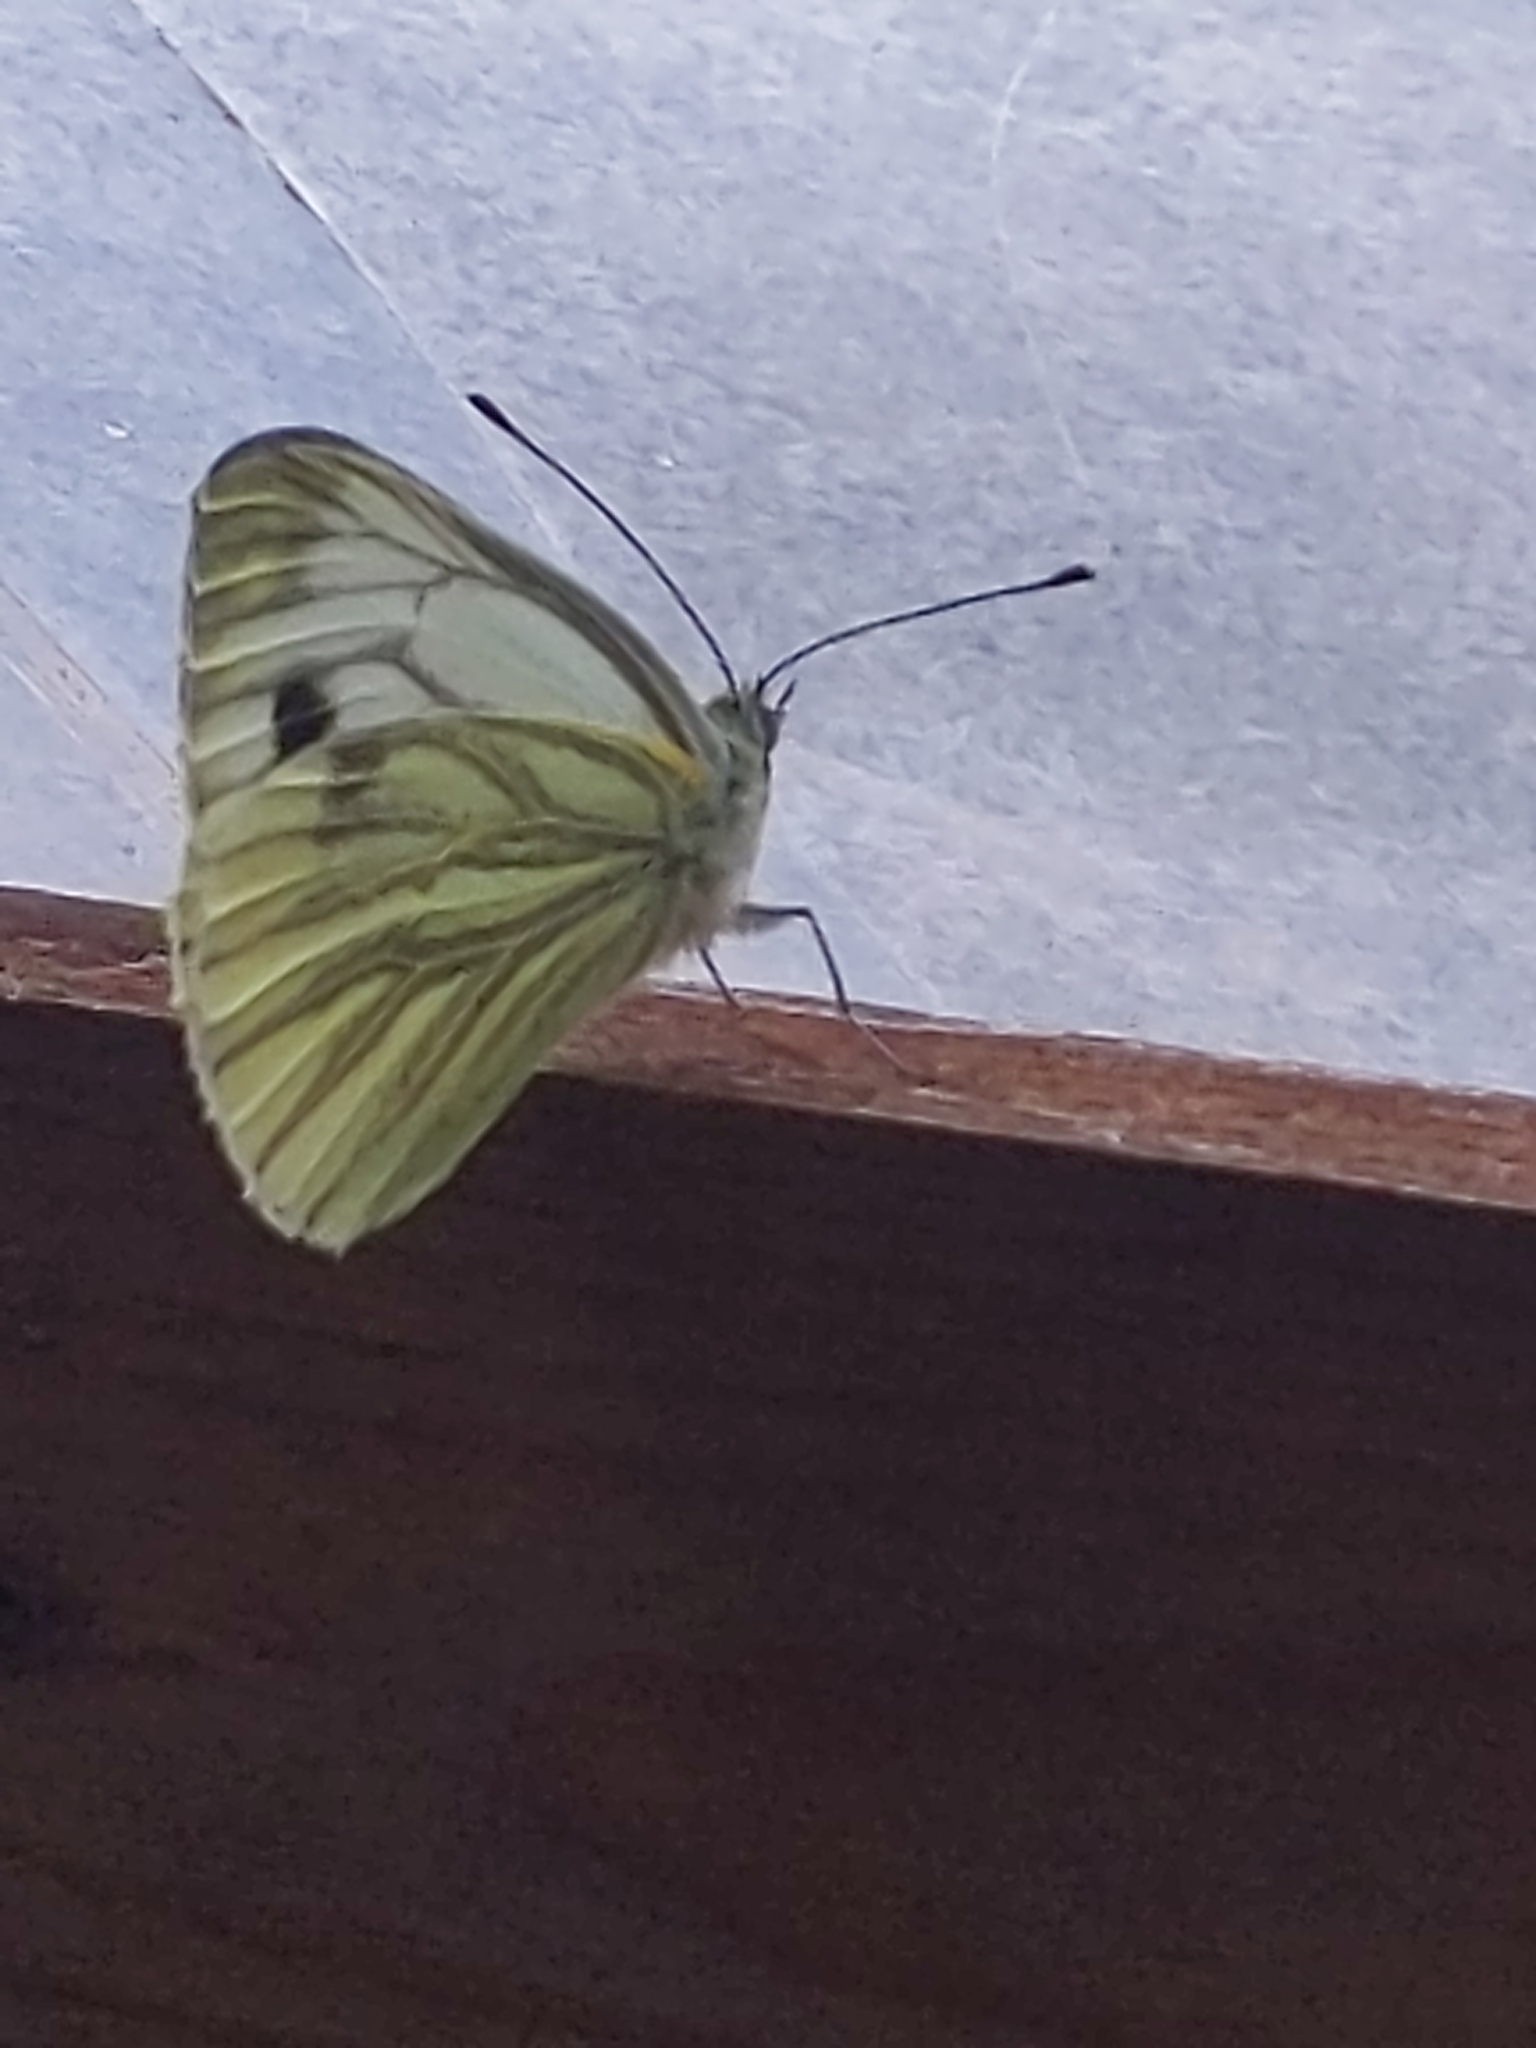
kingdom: Animalia
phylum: Arthropoda
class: Insecta
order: Lepidoptera
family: Pieridae
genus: Pieris
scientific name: Pieris napi
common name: Green-veined white
